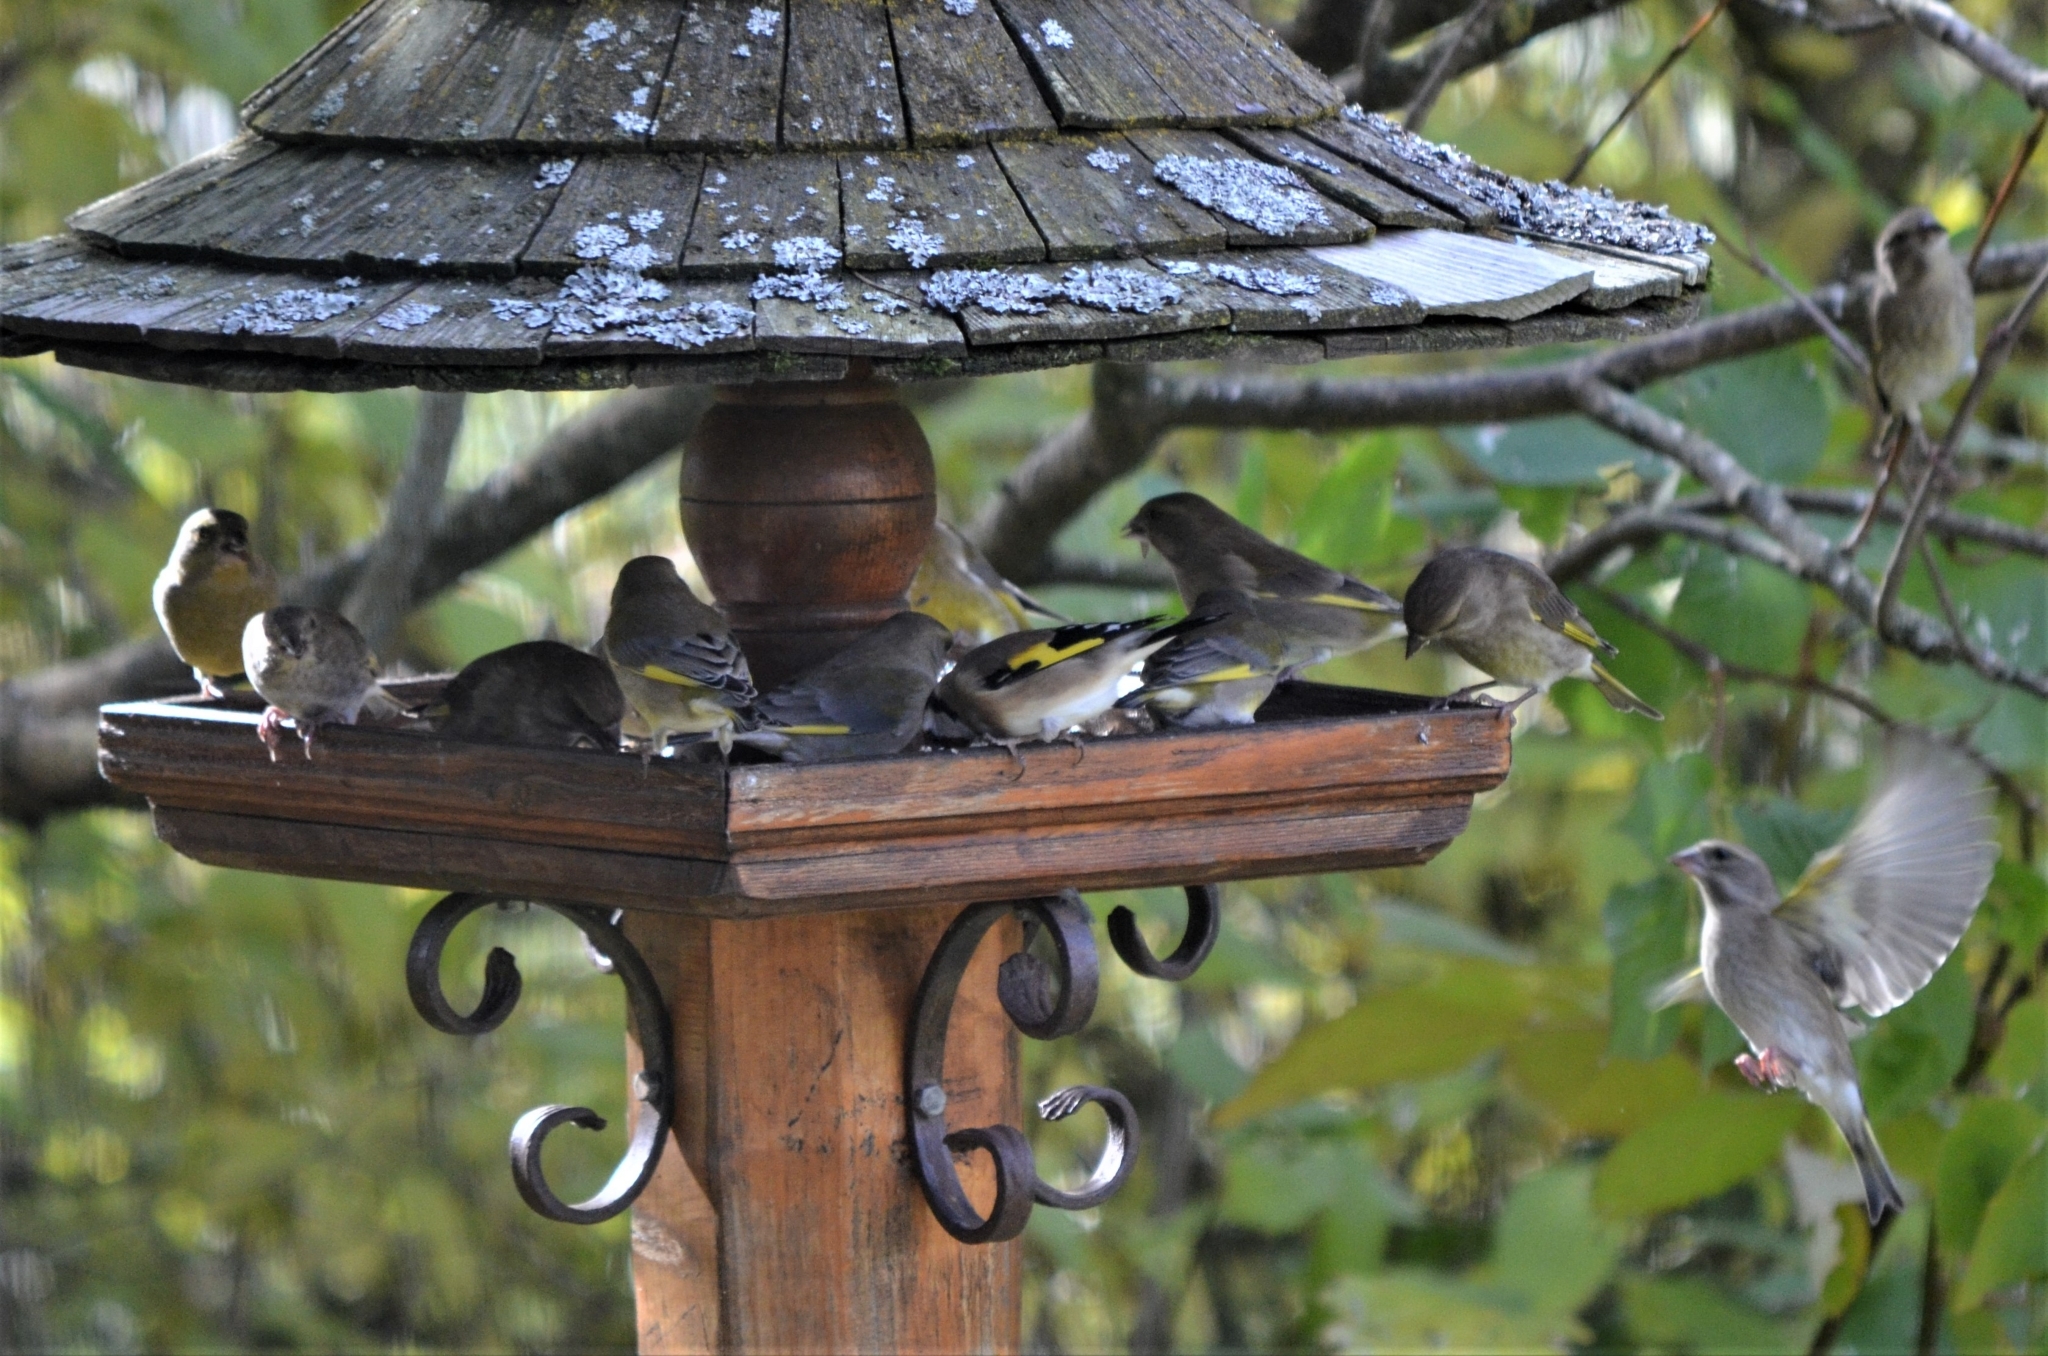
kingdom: Plantae
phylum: Tracheophyta
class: Liliopsida
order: Poales
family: Poaceae
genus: Chloris
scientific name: Chloris chloris
